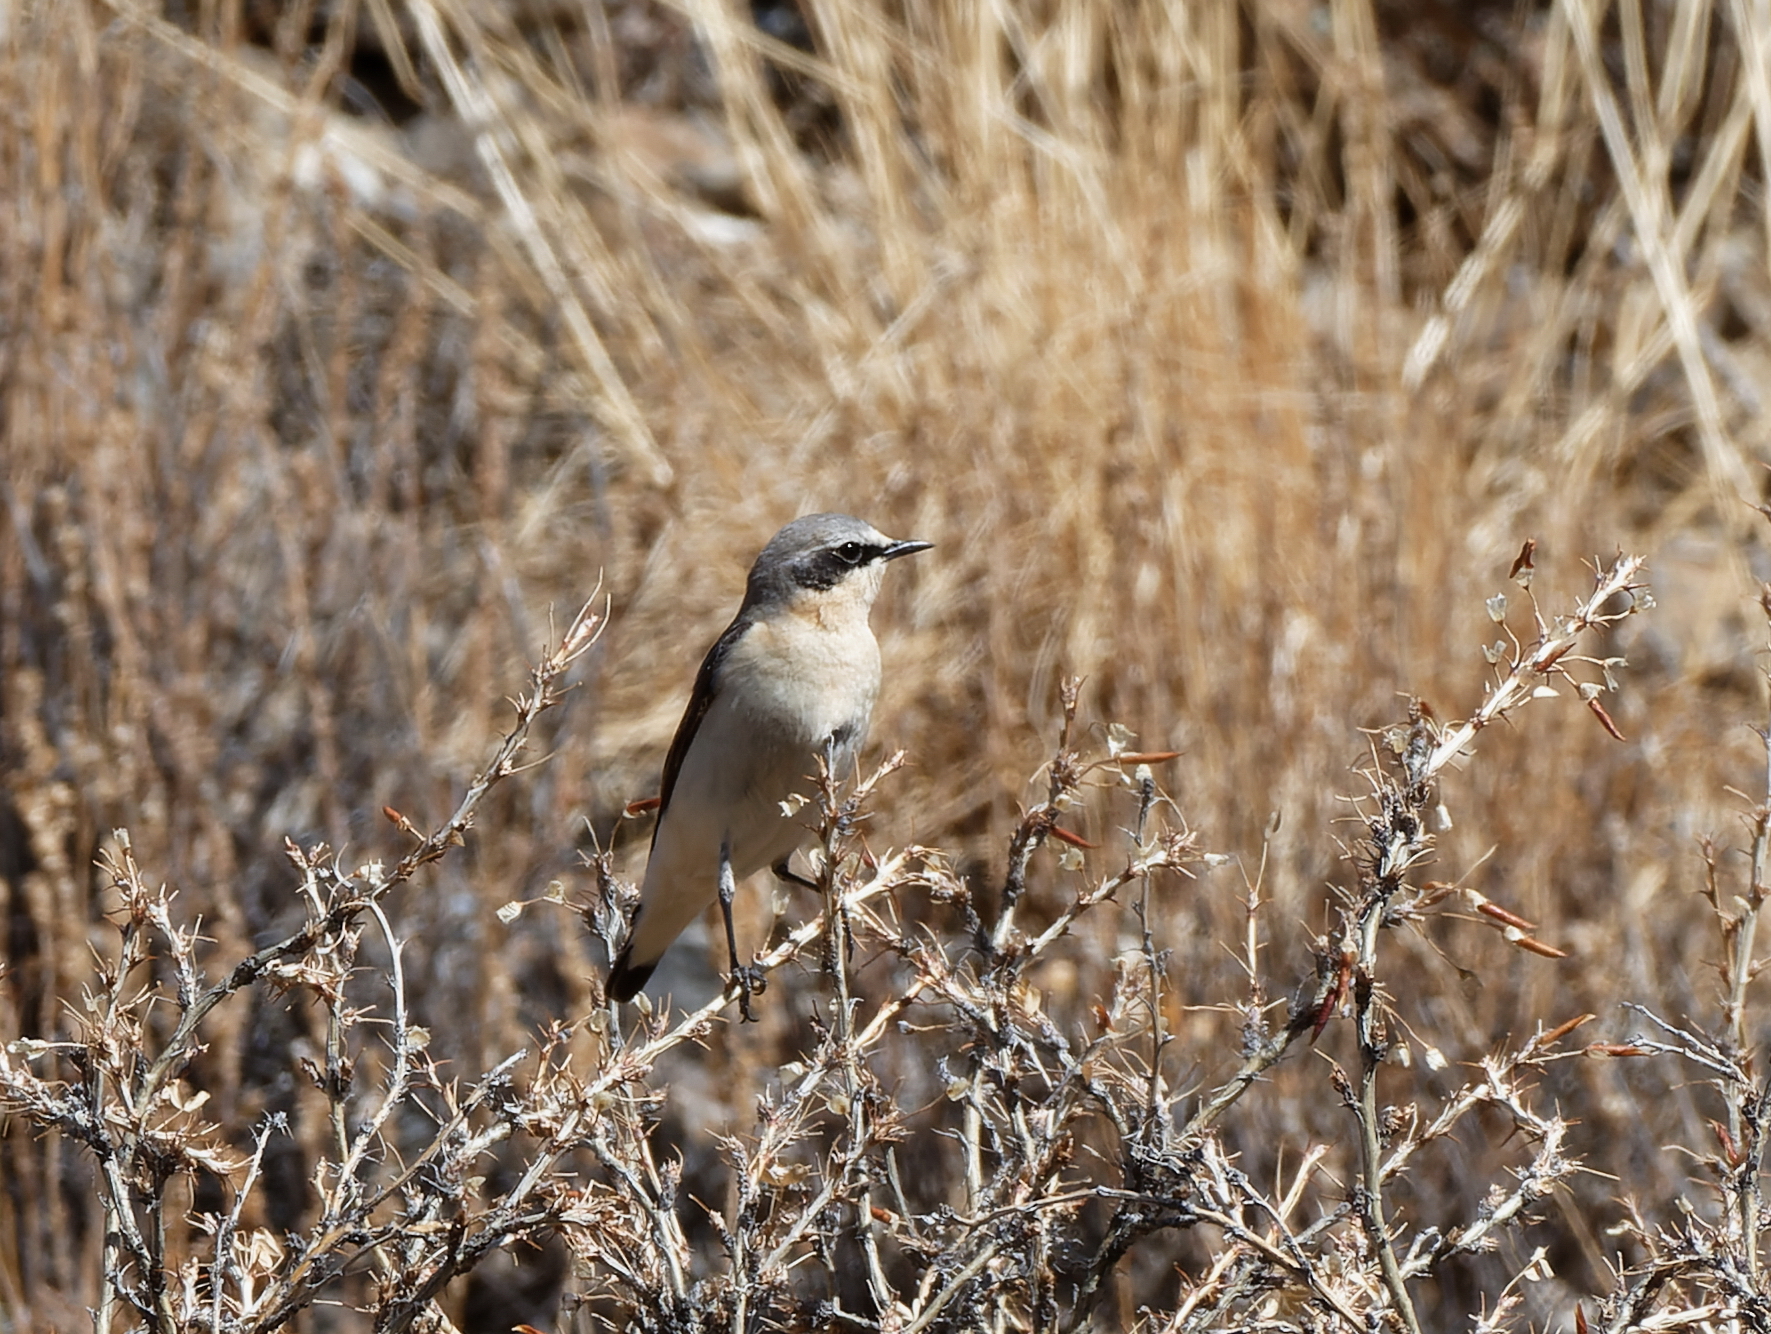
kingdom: Animalia
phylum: Chordata
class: Aves
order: Passeriformes
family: Muscicapidae
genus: Oenanthe
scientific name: Oenanthe oenanthe
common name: Northern wheatear
